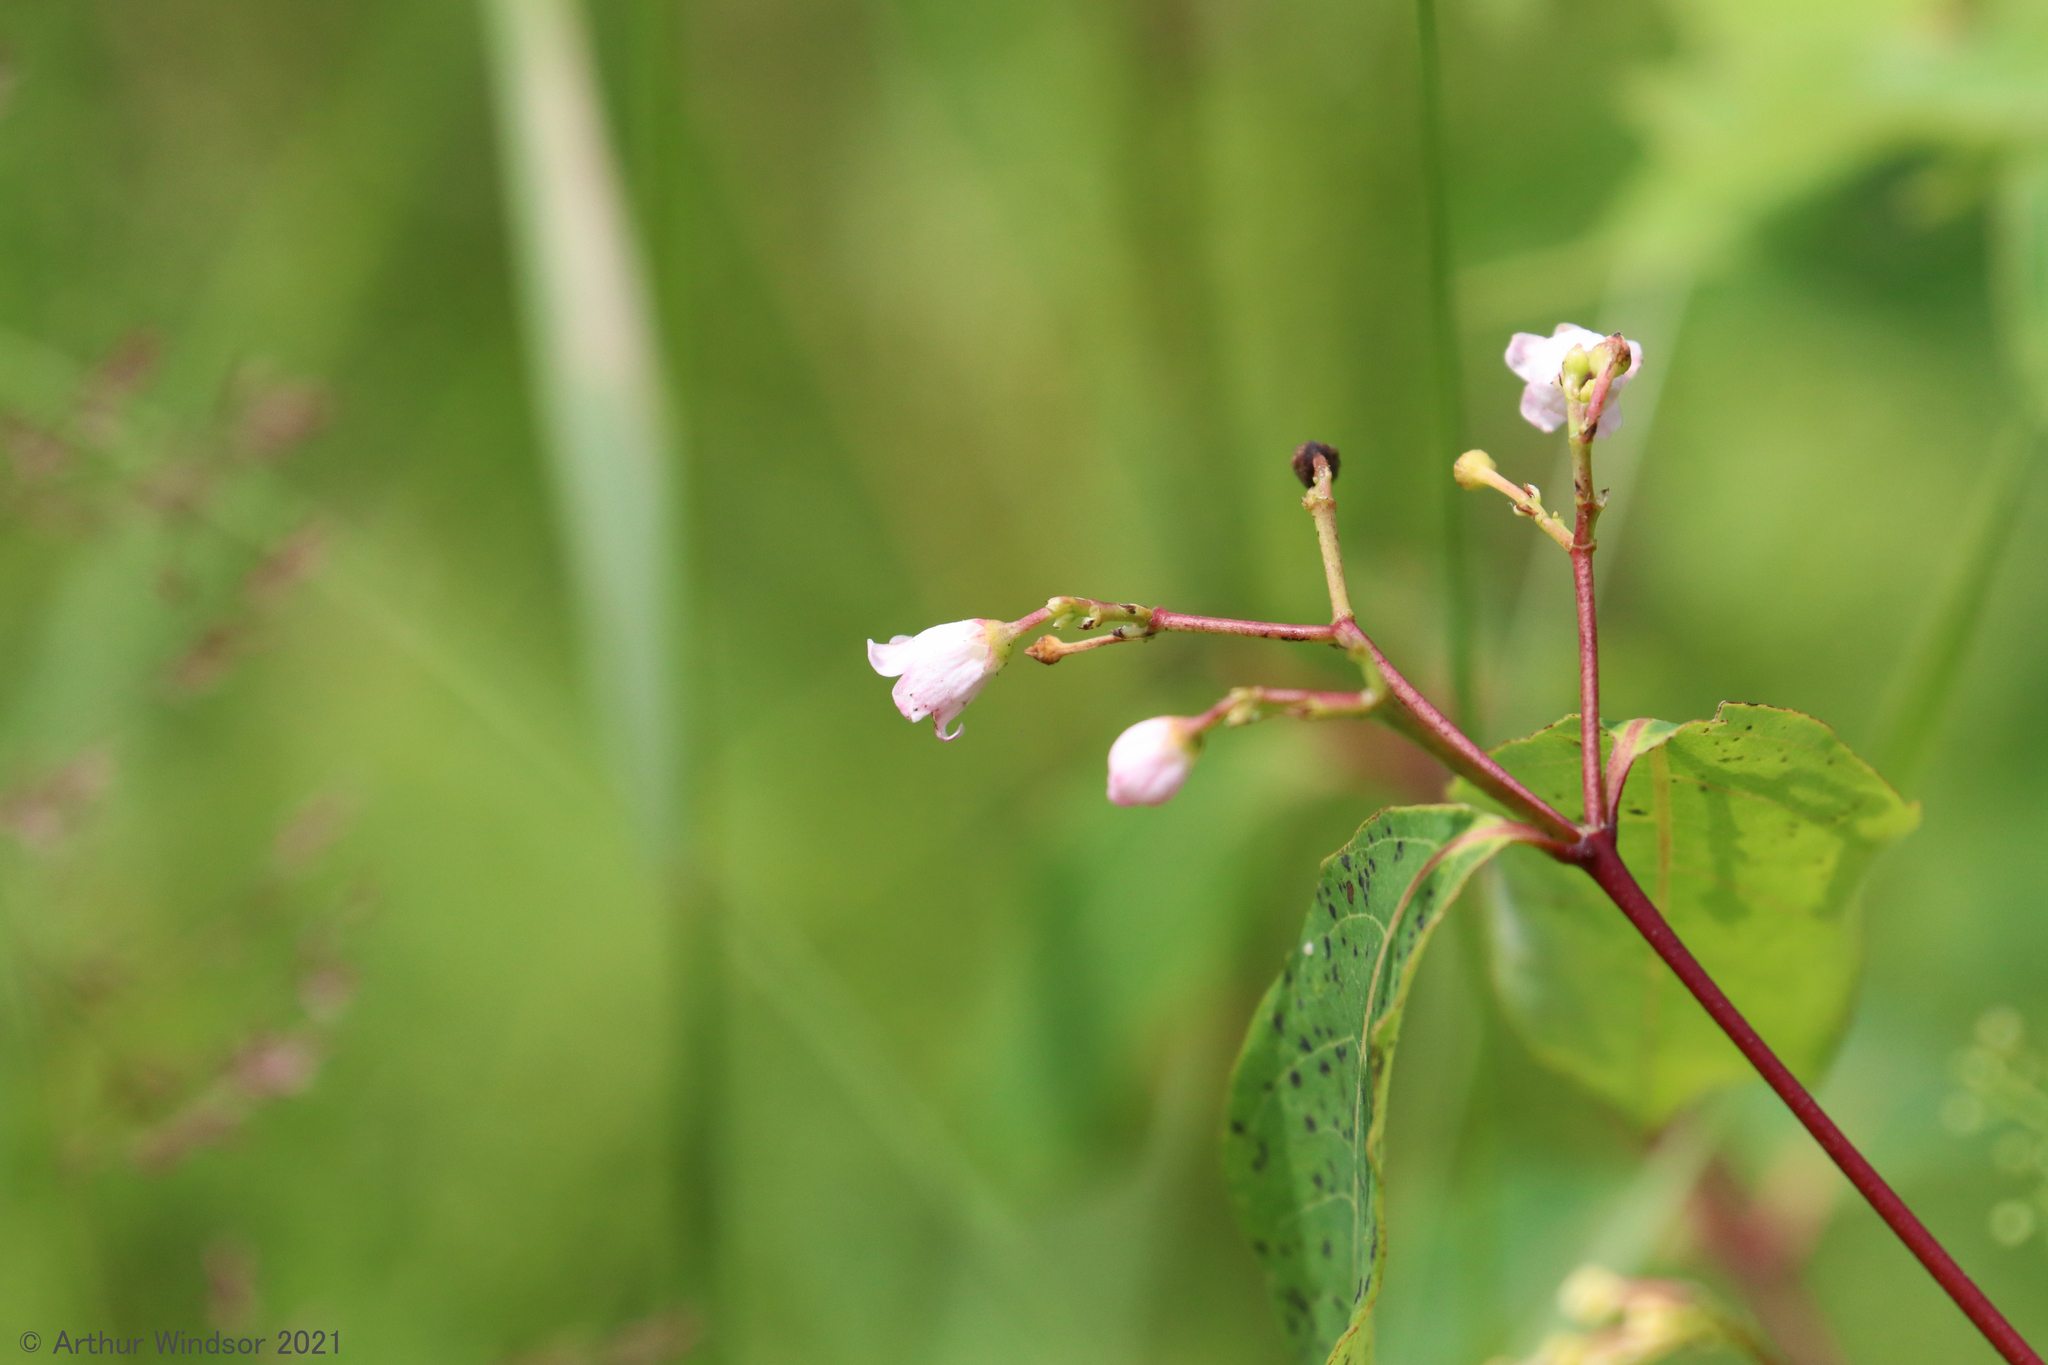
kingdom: Plantae
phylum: Tracheophyta
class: Magnoliopsida
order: Gentianales
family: Apocynaceae
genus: Apocynum
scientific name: Apocynum androsaemifolium
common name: Spreading dogbane
